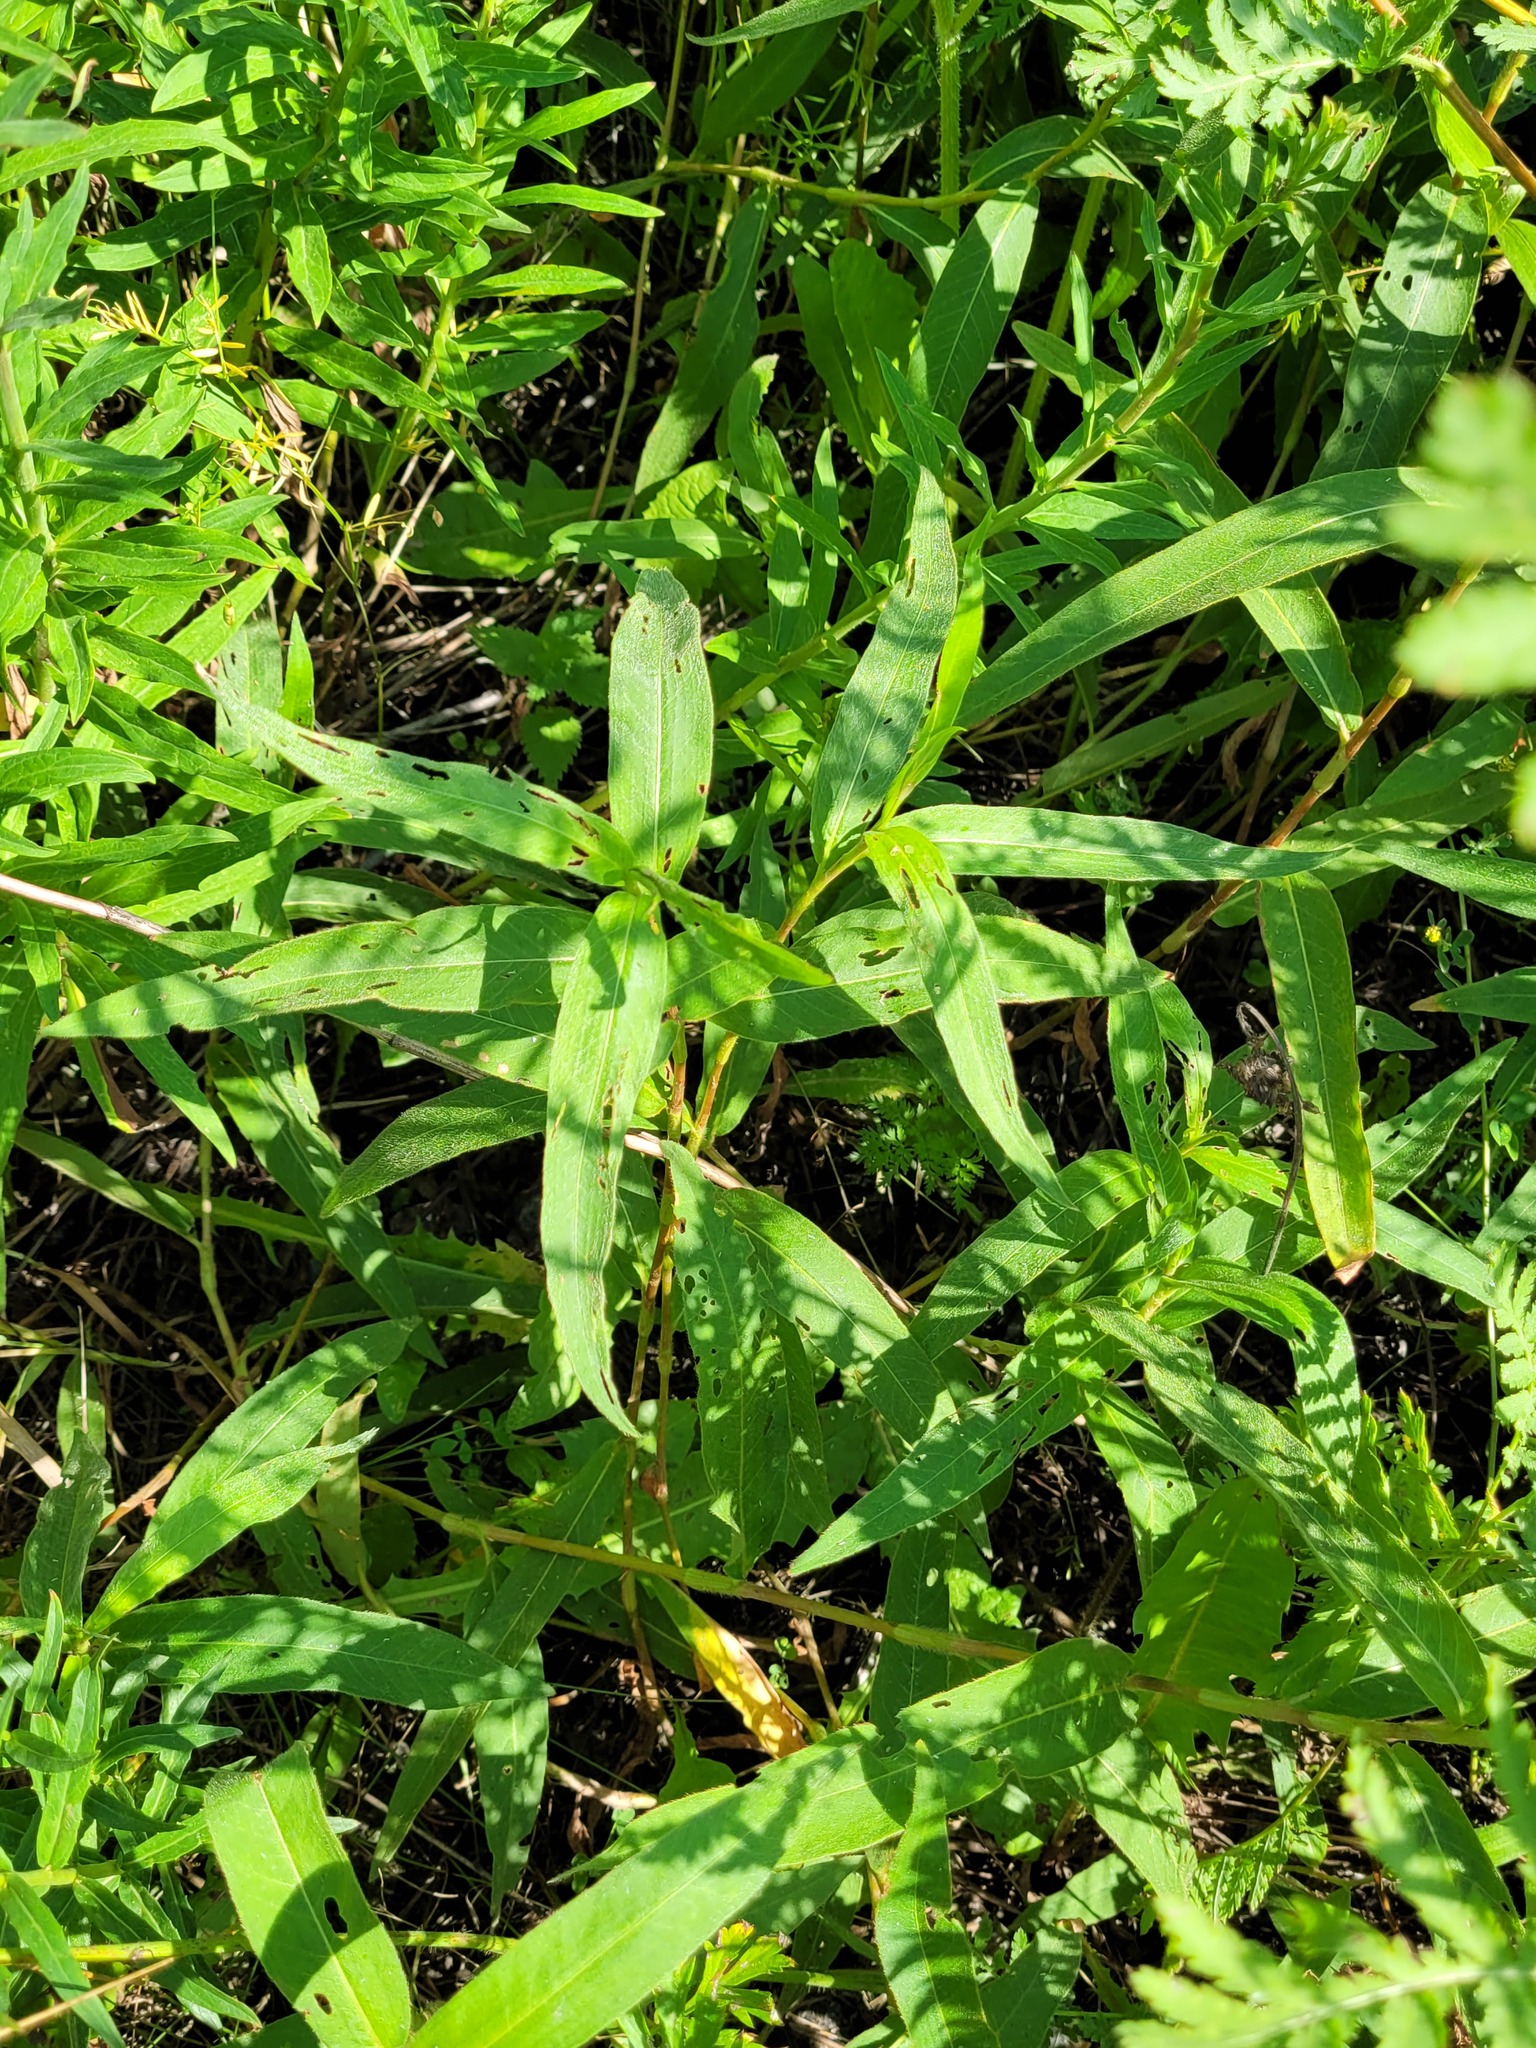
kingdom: Plantae
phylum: Tracheophyta
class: Magnoliopsida
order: Caryophyllales
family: Polygonaceae
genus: Persicaria
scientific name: Persicaria amphibia
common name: Amphibious bistort
